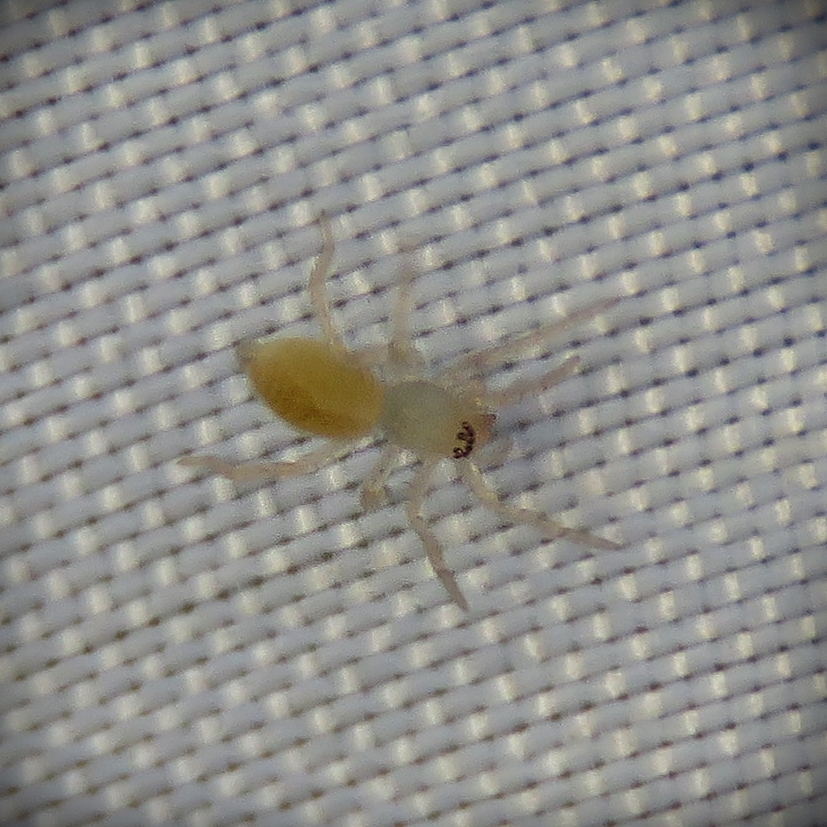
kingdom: Animalia
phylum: Arthropoda
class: Arachnida
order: Araneae
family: Clubionidae
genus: Clubiona
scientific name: Clubiona
